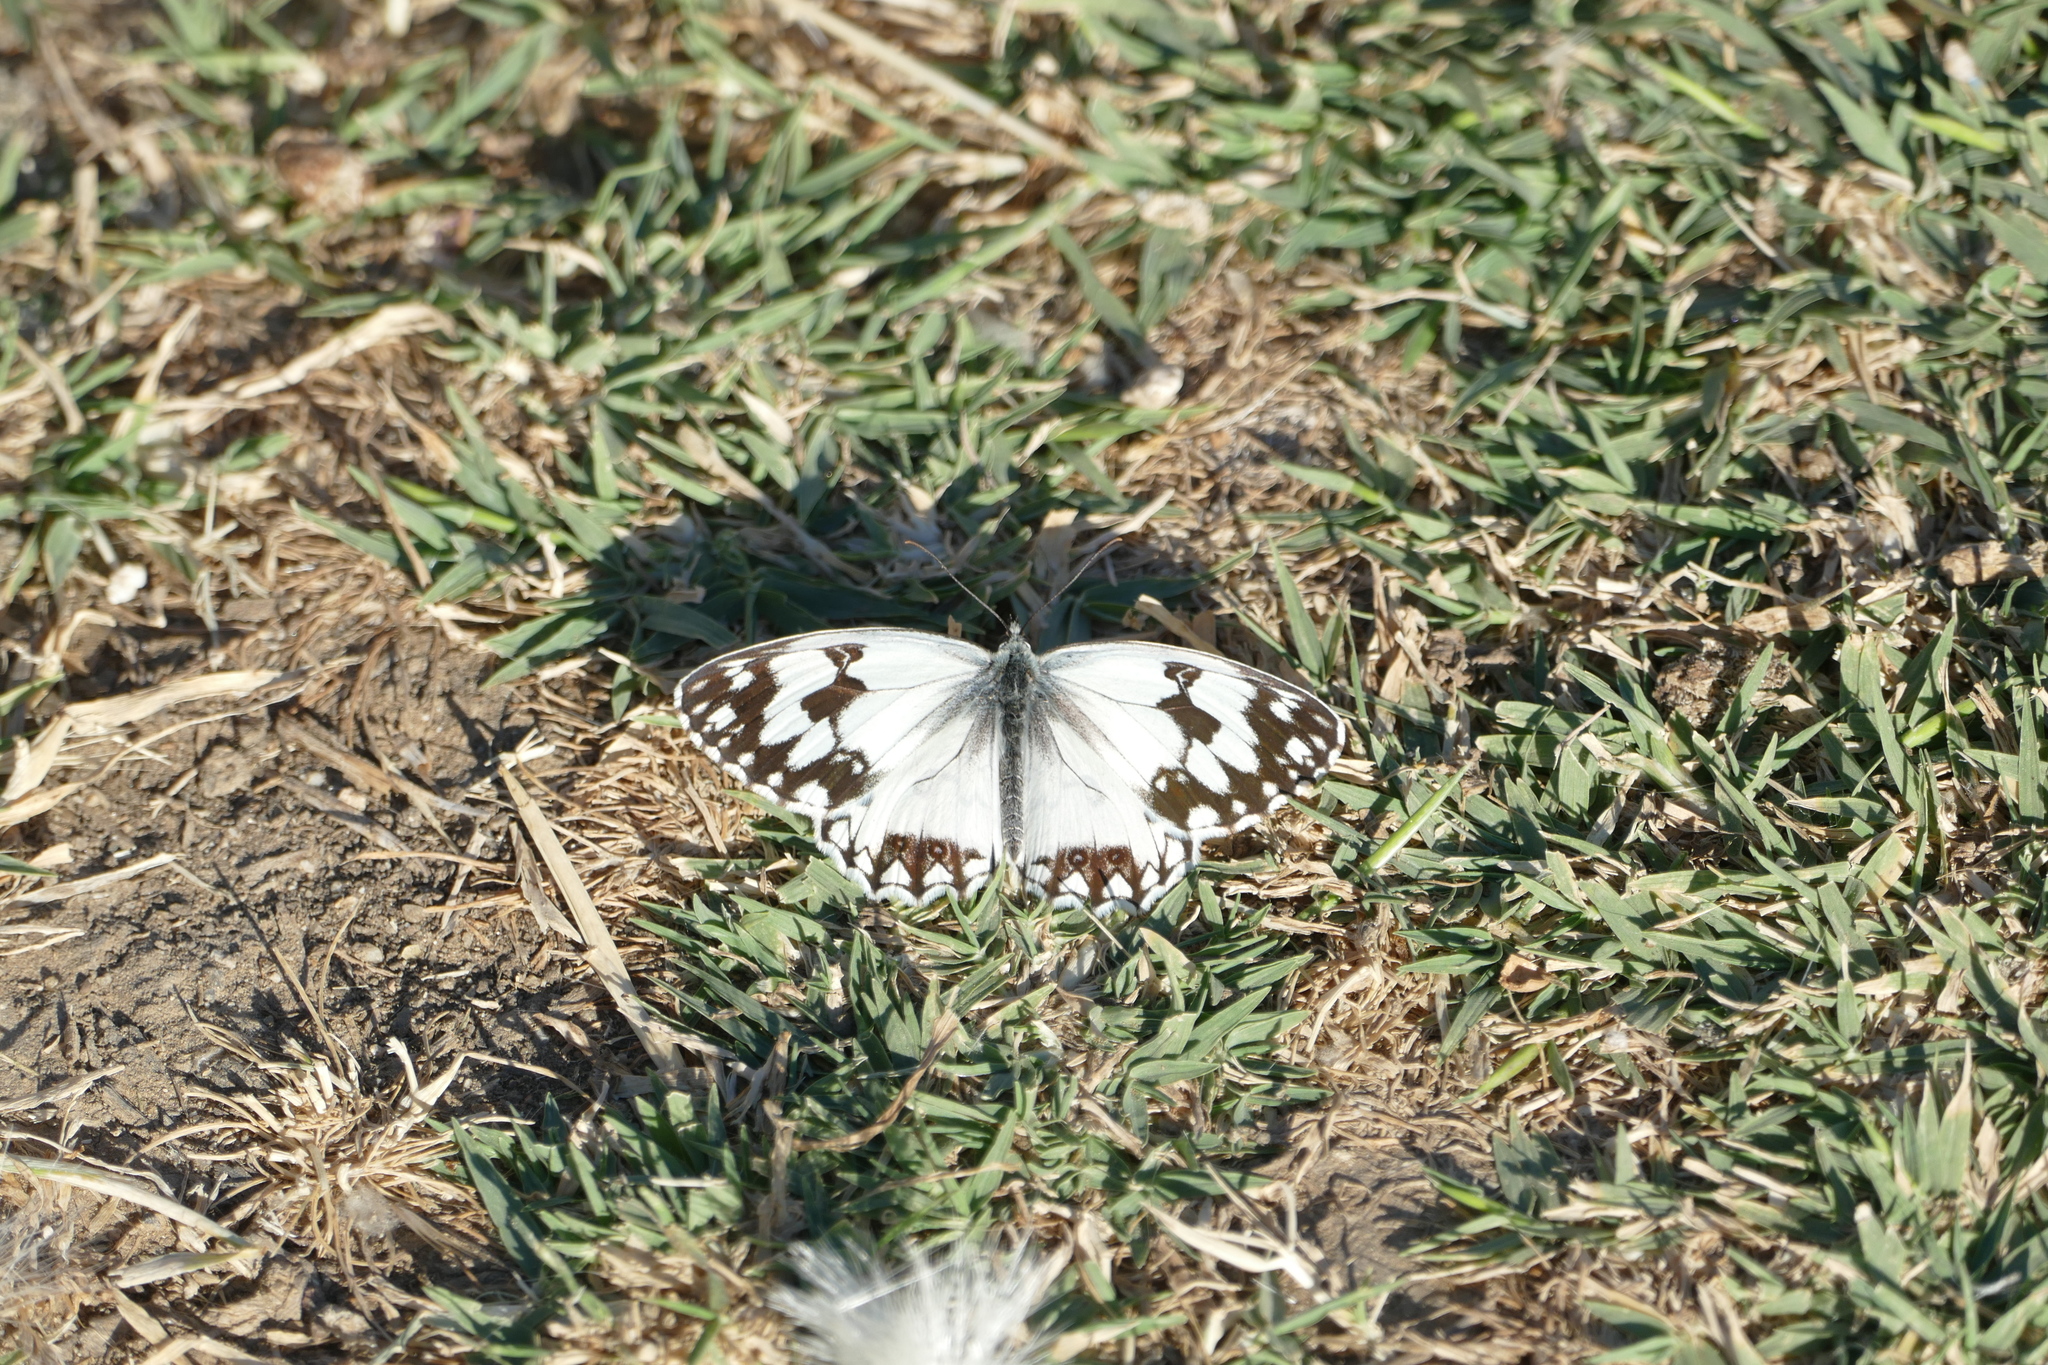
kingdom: Animalia
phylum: Arthropoda
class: Insecta
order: Lepidoptera
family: Nymphalidae
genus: Melanargia
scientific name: Melanargia lachesis
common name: Iberian marbled white
